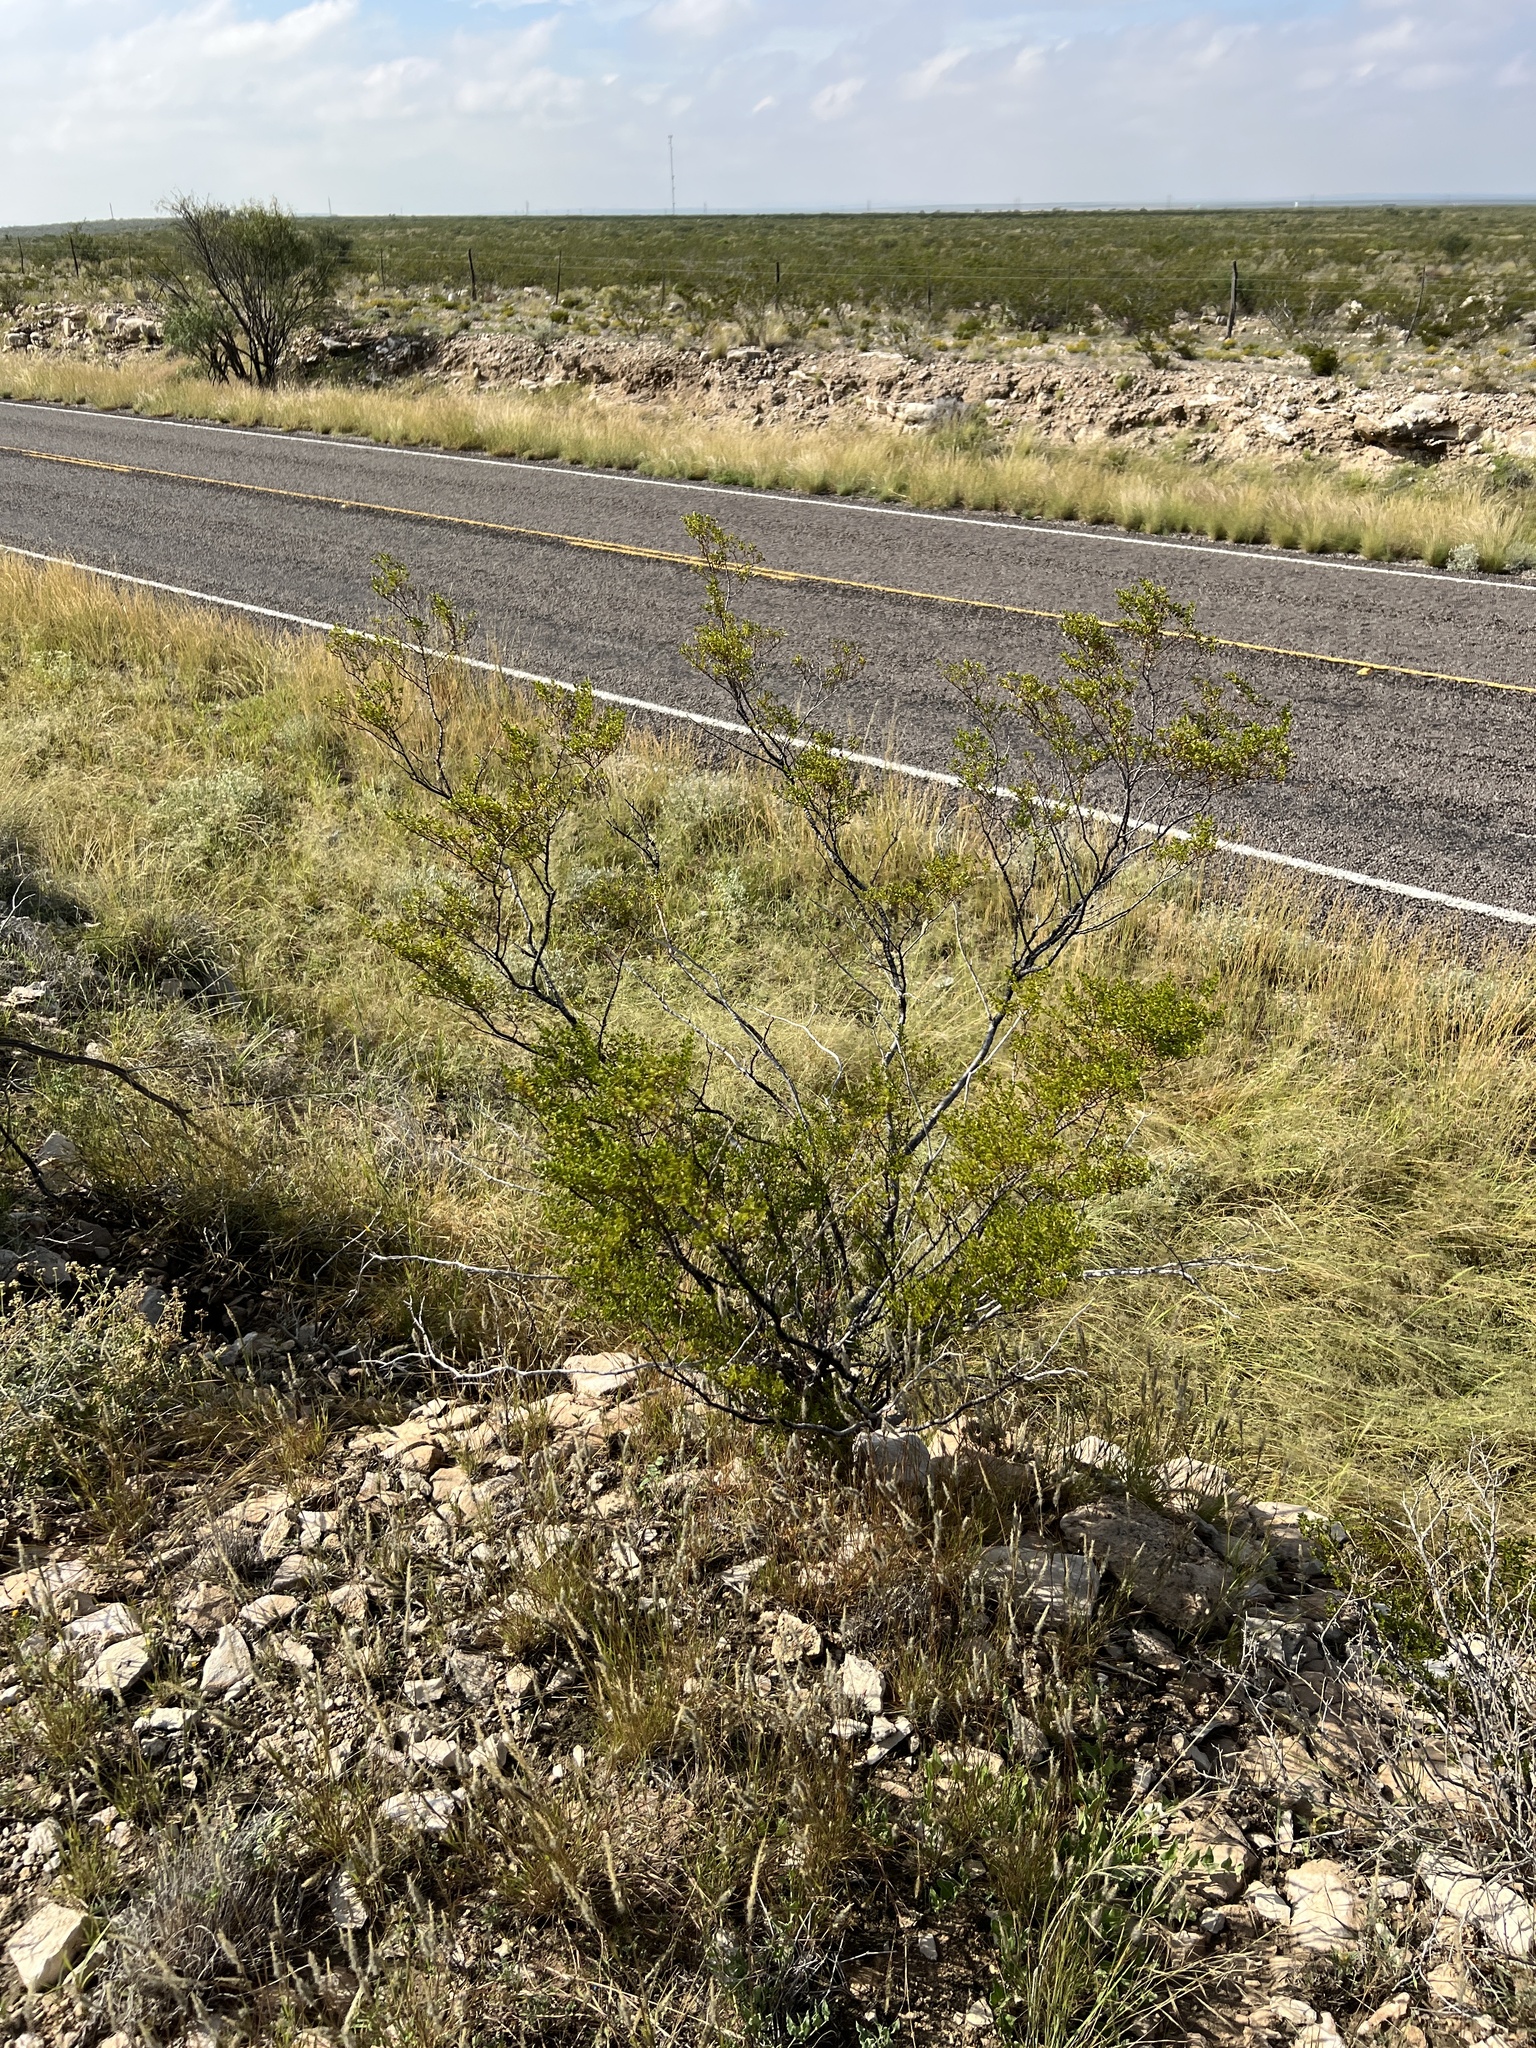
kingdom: Plantae
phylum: Tracheophyta
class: Magnoliopsida
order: Zygophyllales
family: Zygophyllaceae
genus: Larrea
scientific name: Larrea tridentata
